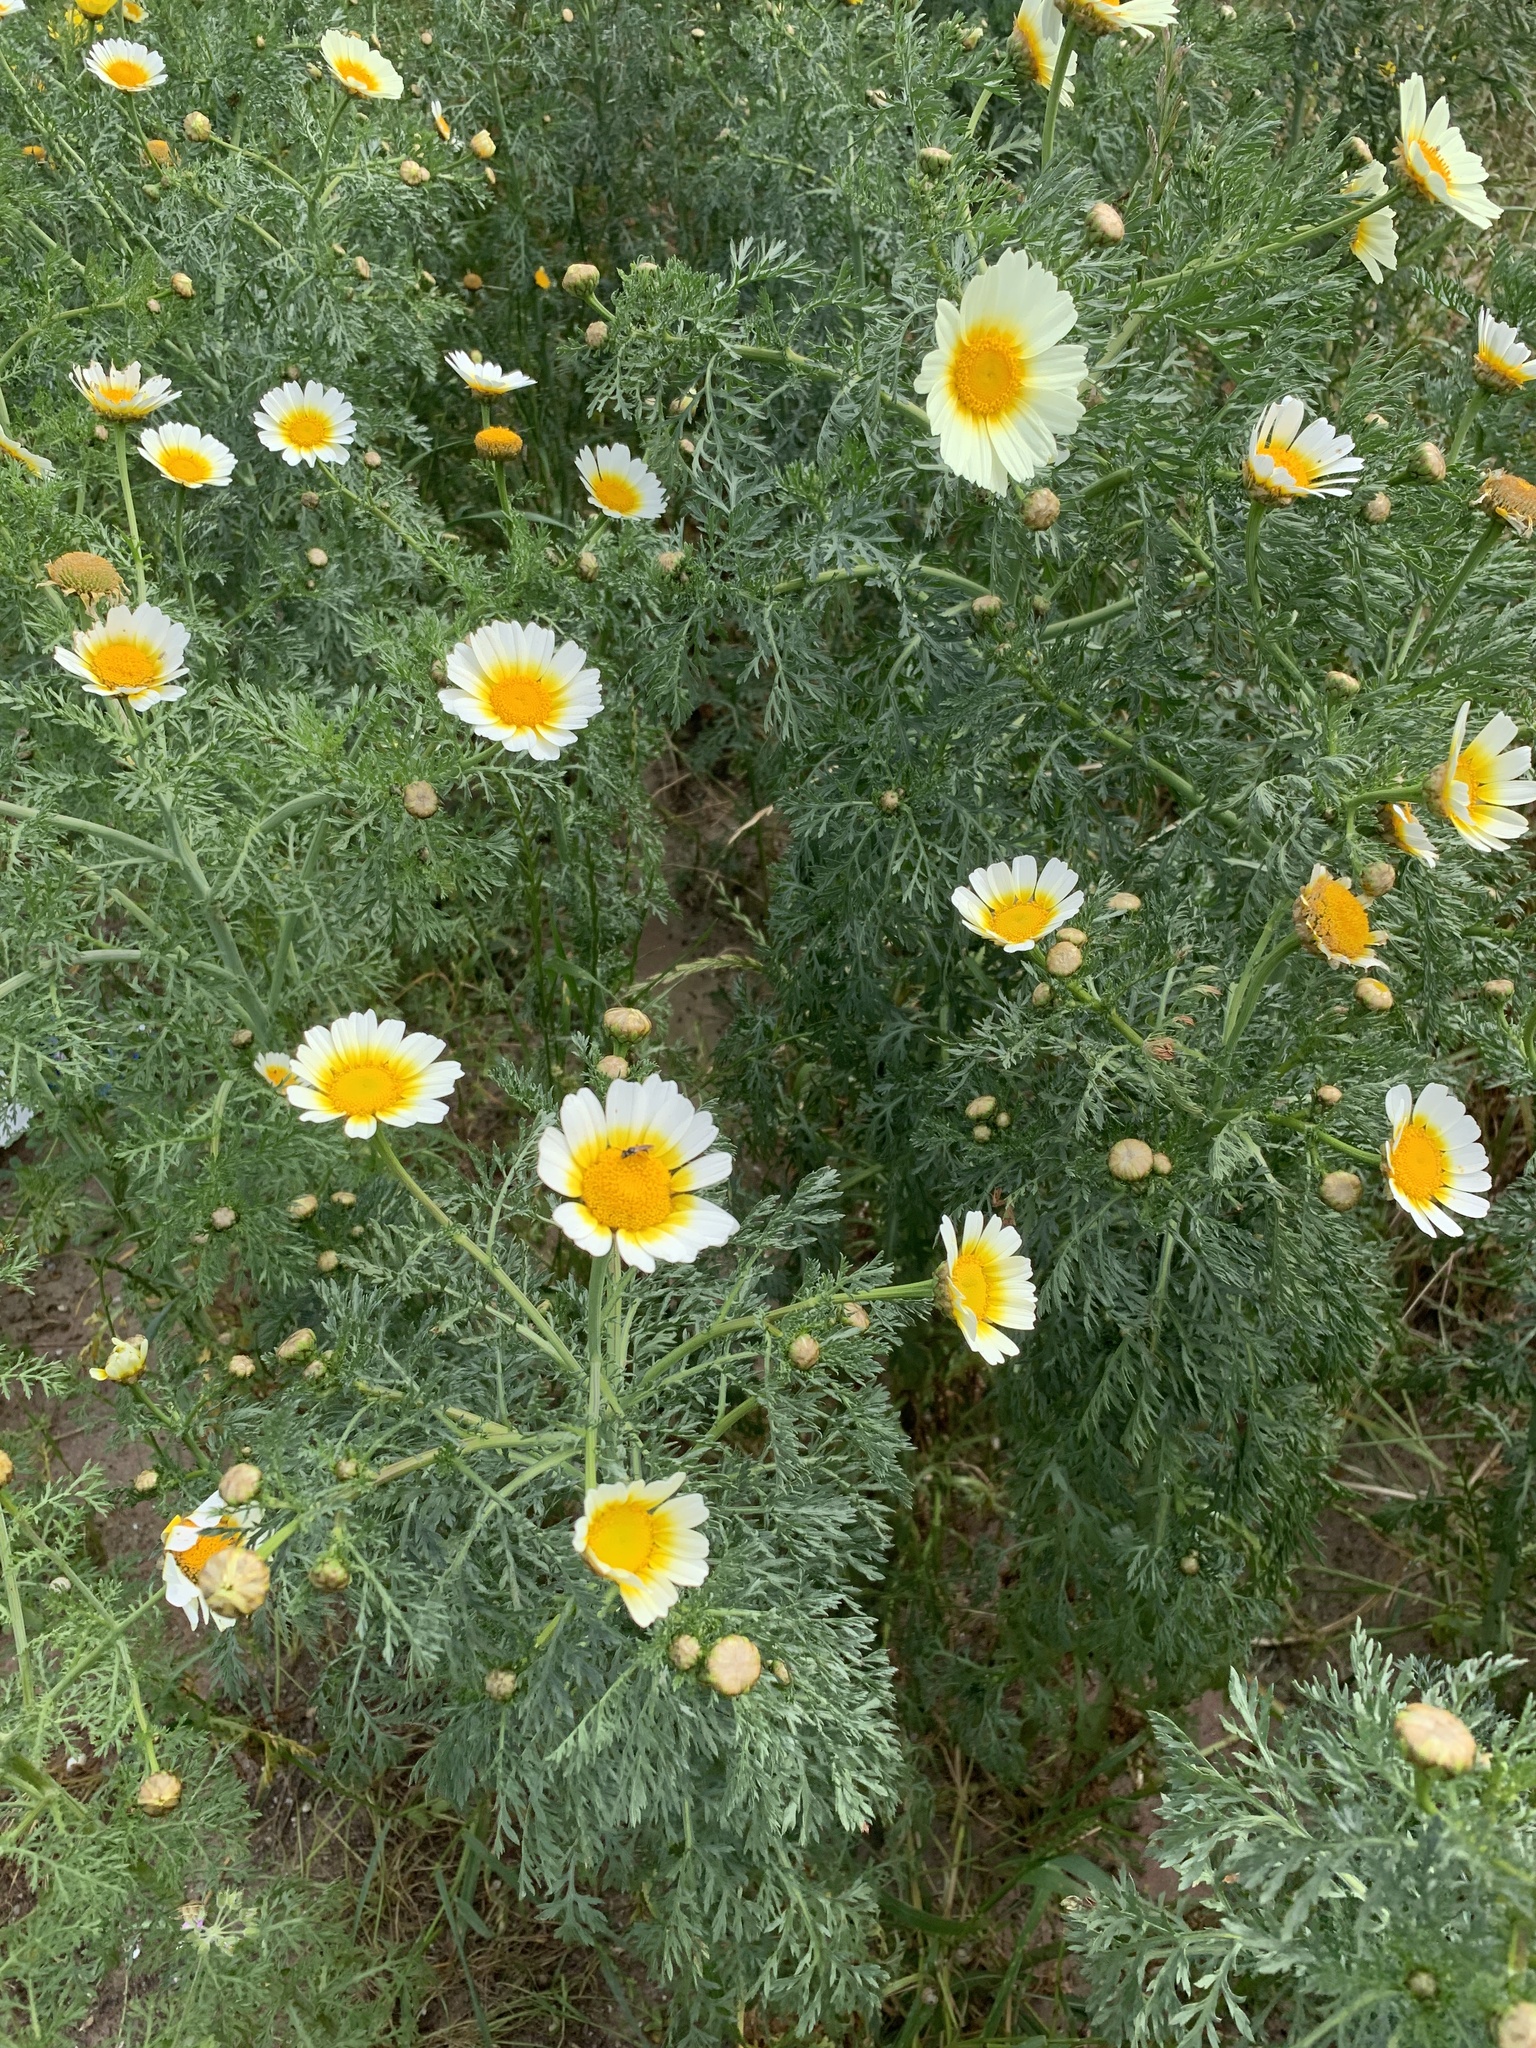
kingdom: Plantae
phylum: Tracheophyta
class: Magnoliopsida
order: Asterales
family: Asteraceae
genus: Glebionis
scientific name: Glebionis coronaria
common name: Crowndaisy
